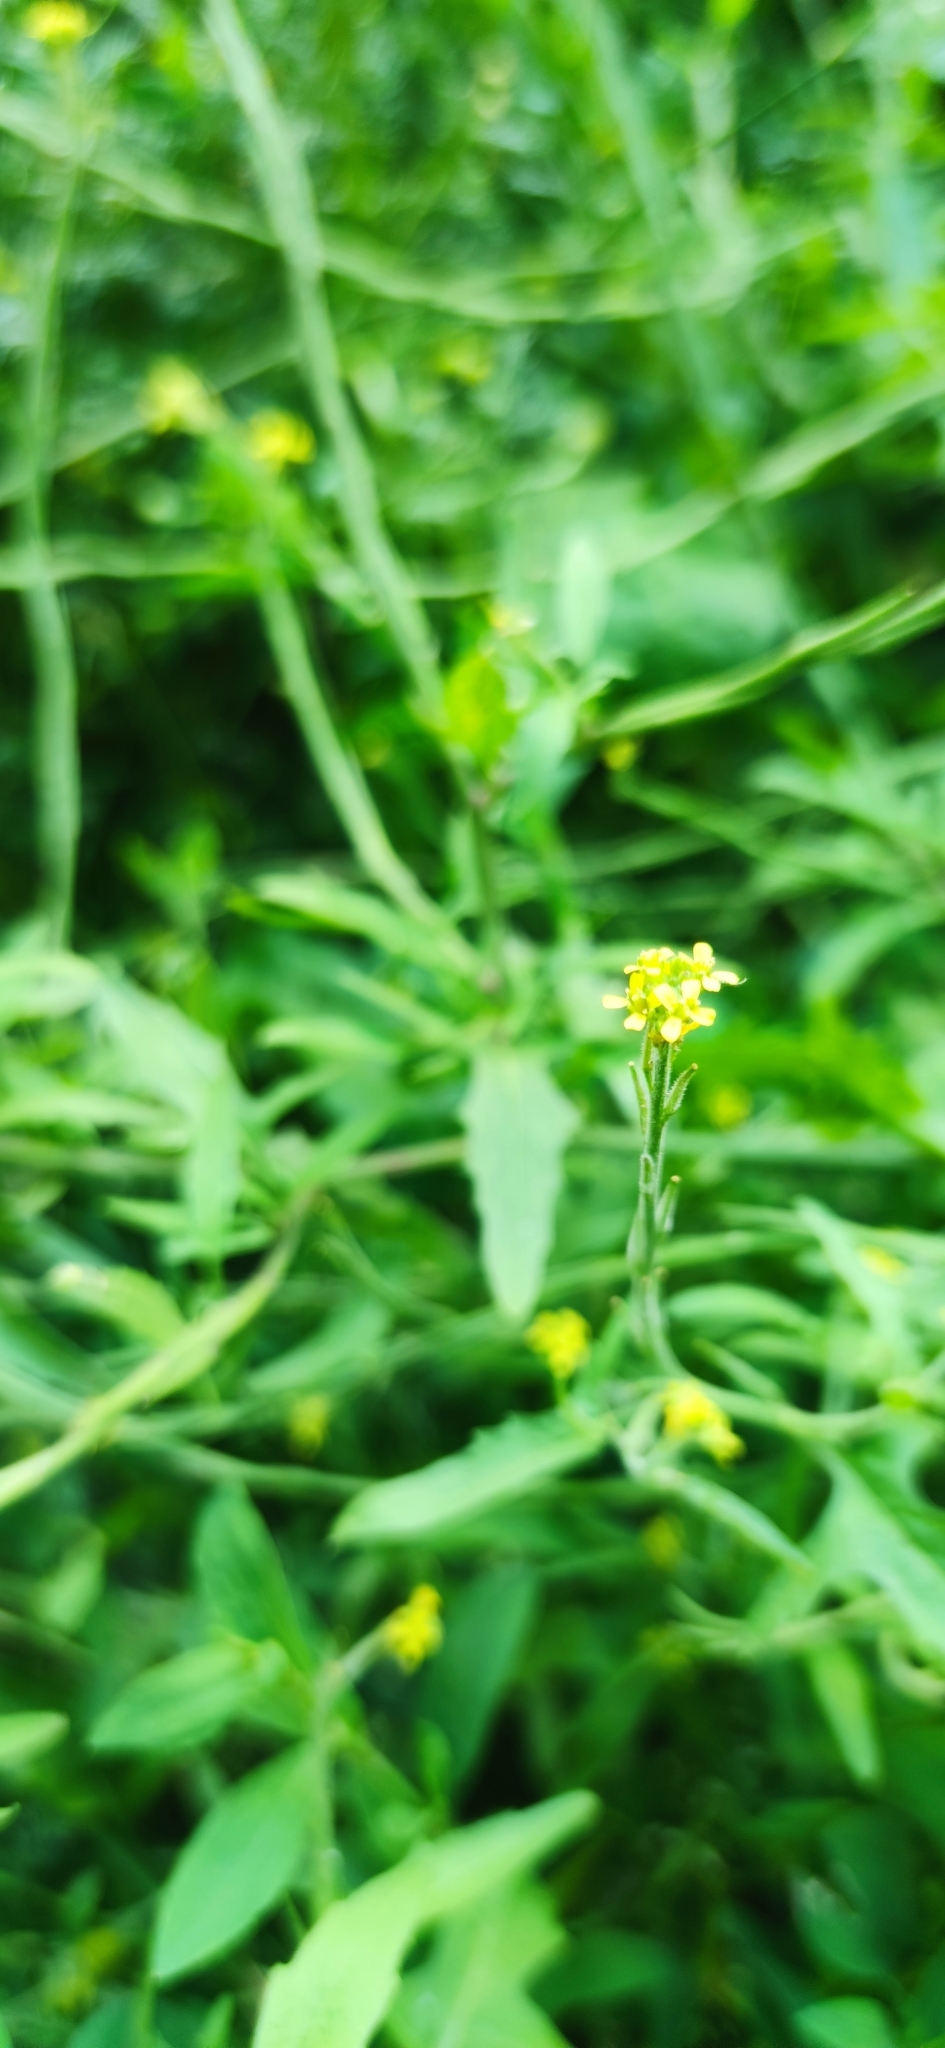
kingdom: Plantae
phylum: Tracheophyta
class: Magnoliopsida
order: Brassicales
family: Brassicaceae
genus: Sisymbrium
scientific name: Sisymbrium officinale
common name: Hedge mustard
